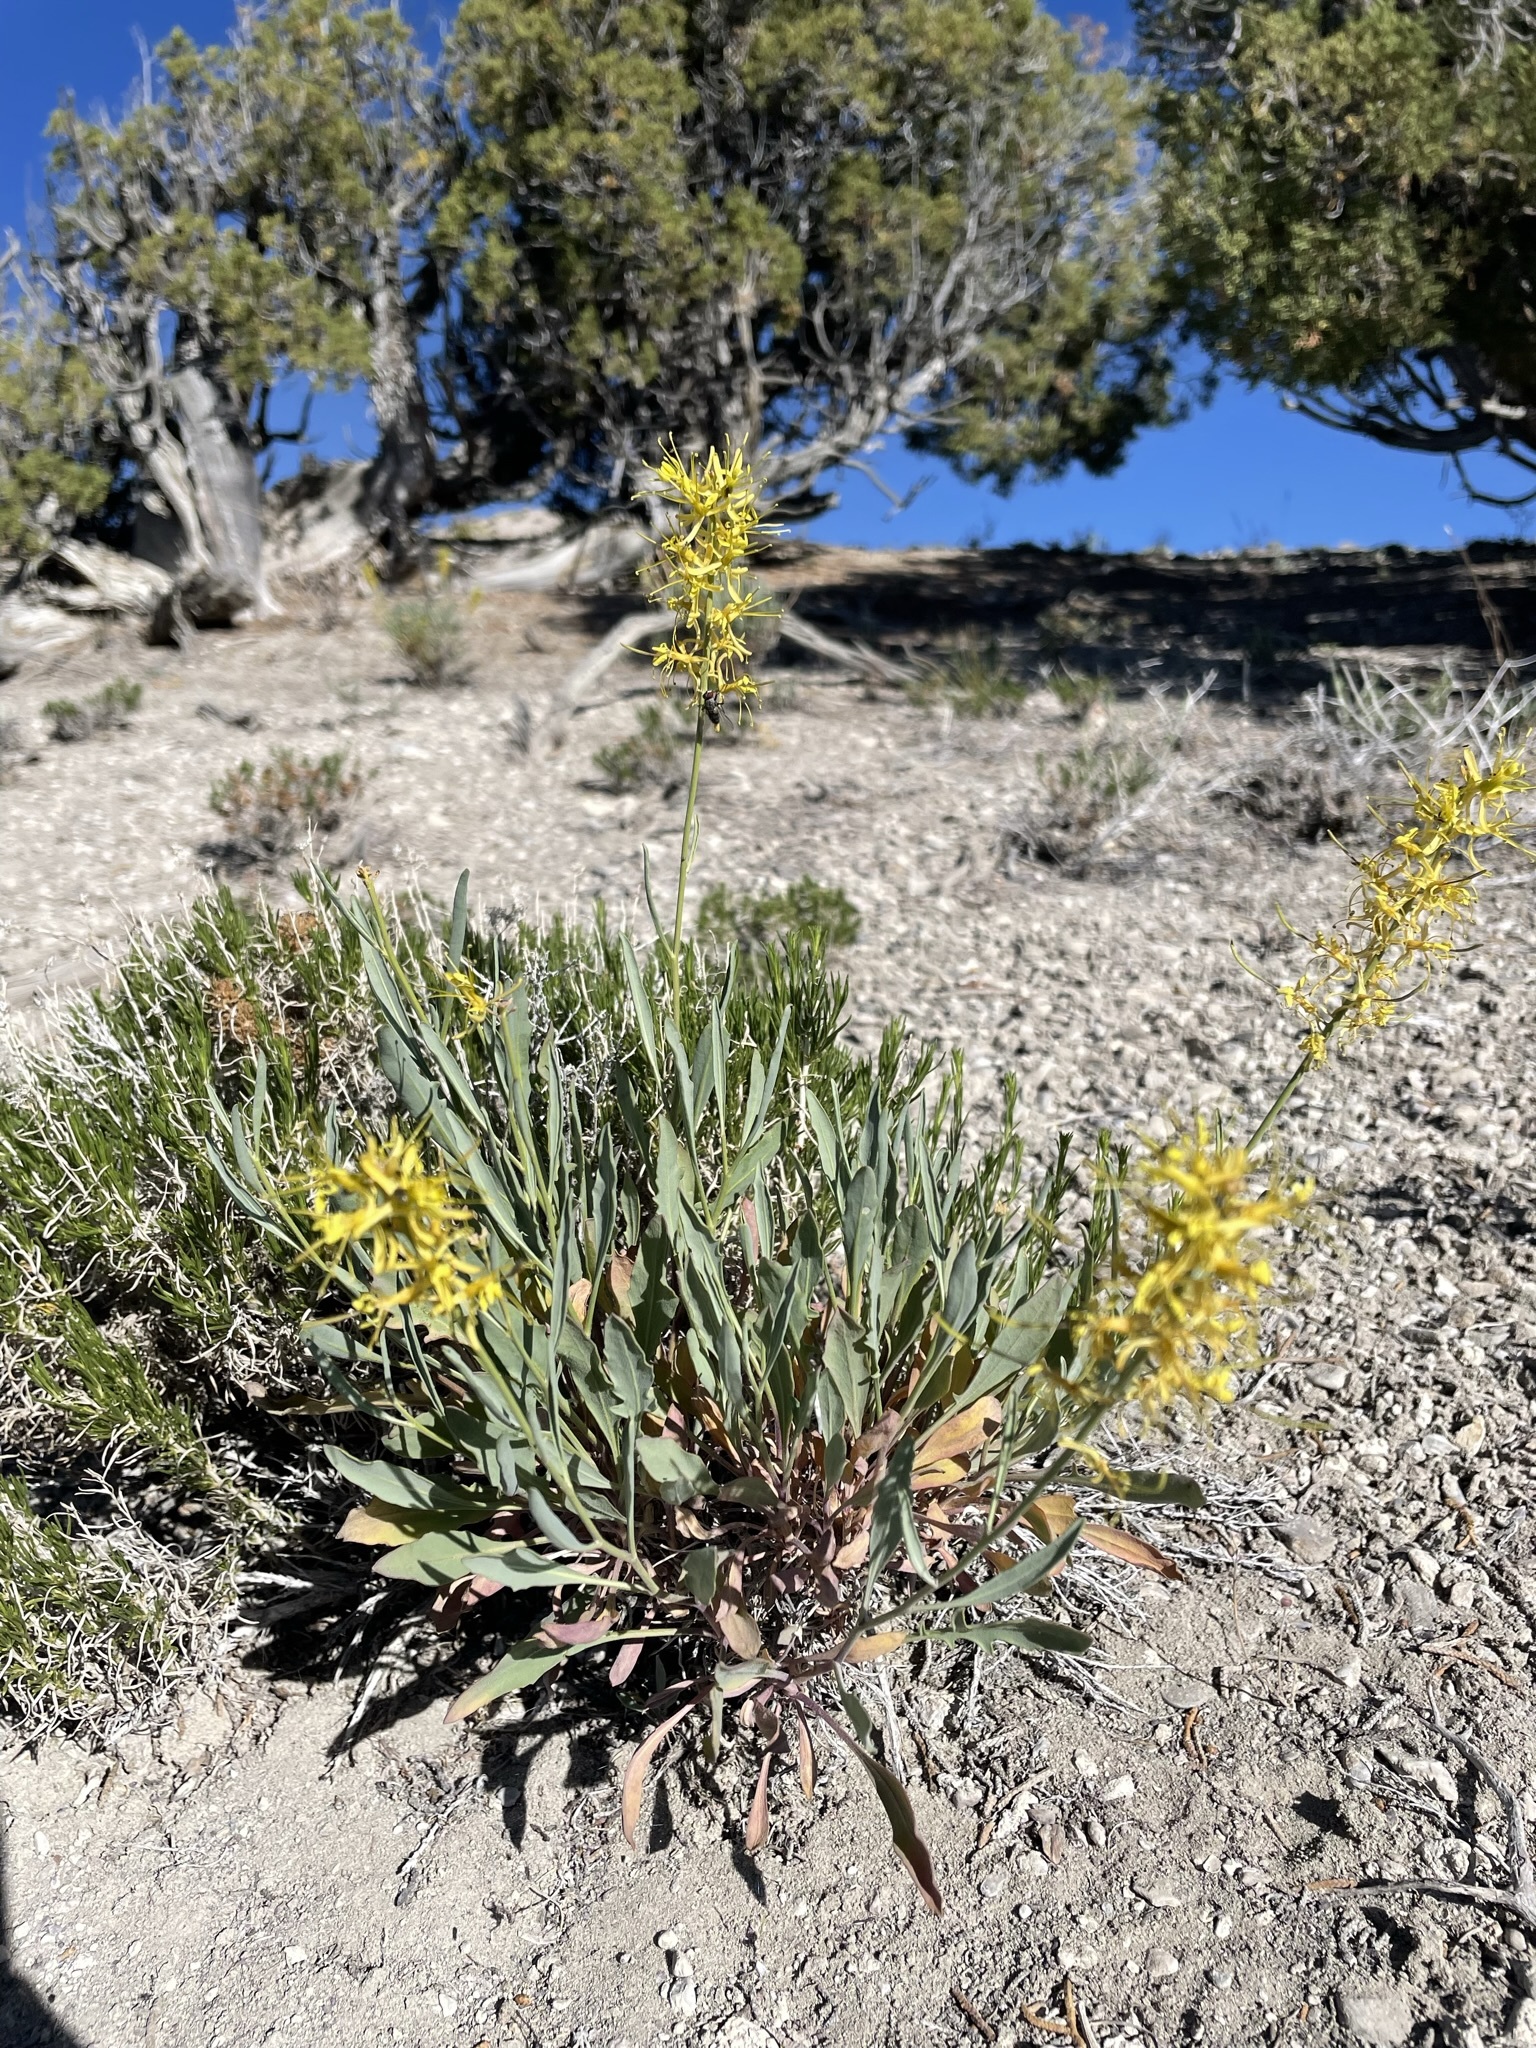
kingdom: Plantae
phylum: Tracheophyta
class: Magnoliopsida
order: Brassicales
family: Brassicaceae
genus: Stanleya
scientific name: Stanleya pinnata
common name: Prince's-plume
